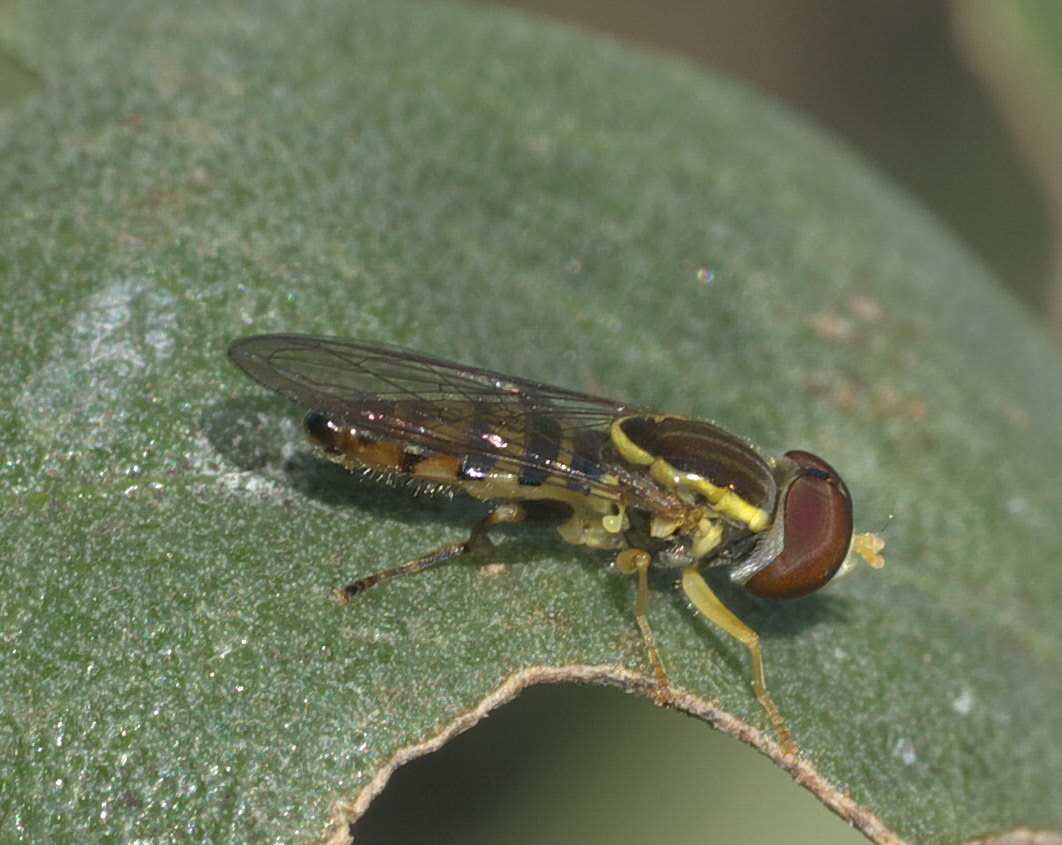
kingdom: Animalia
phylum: Arthropoda
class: Insecta
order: Diptera
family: Syrphidae
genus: Toxomerus
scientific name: Toxomerus geminatus
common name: Eastern calligrapher
